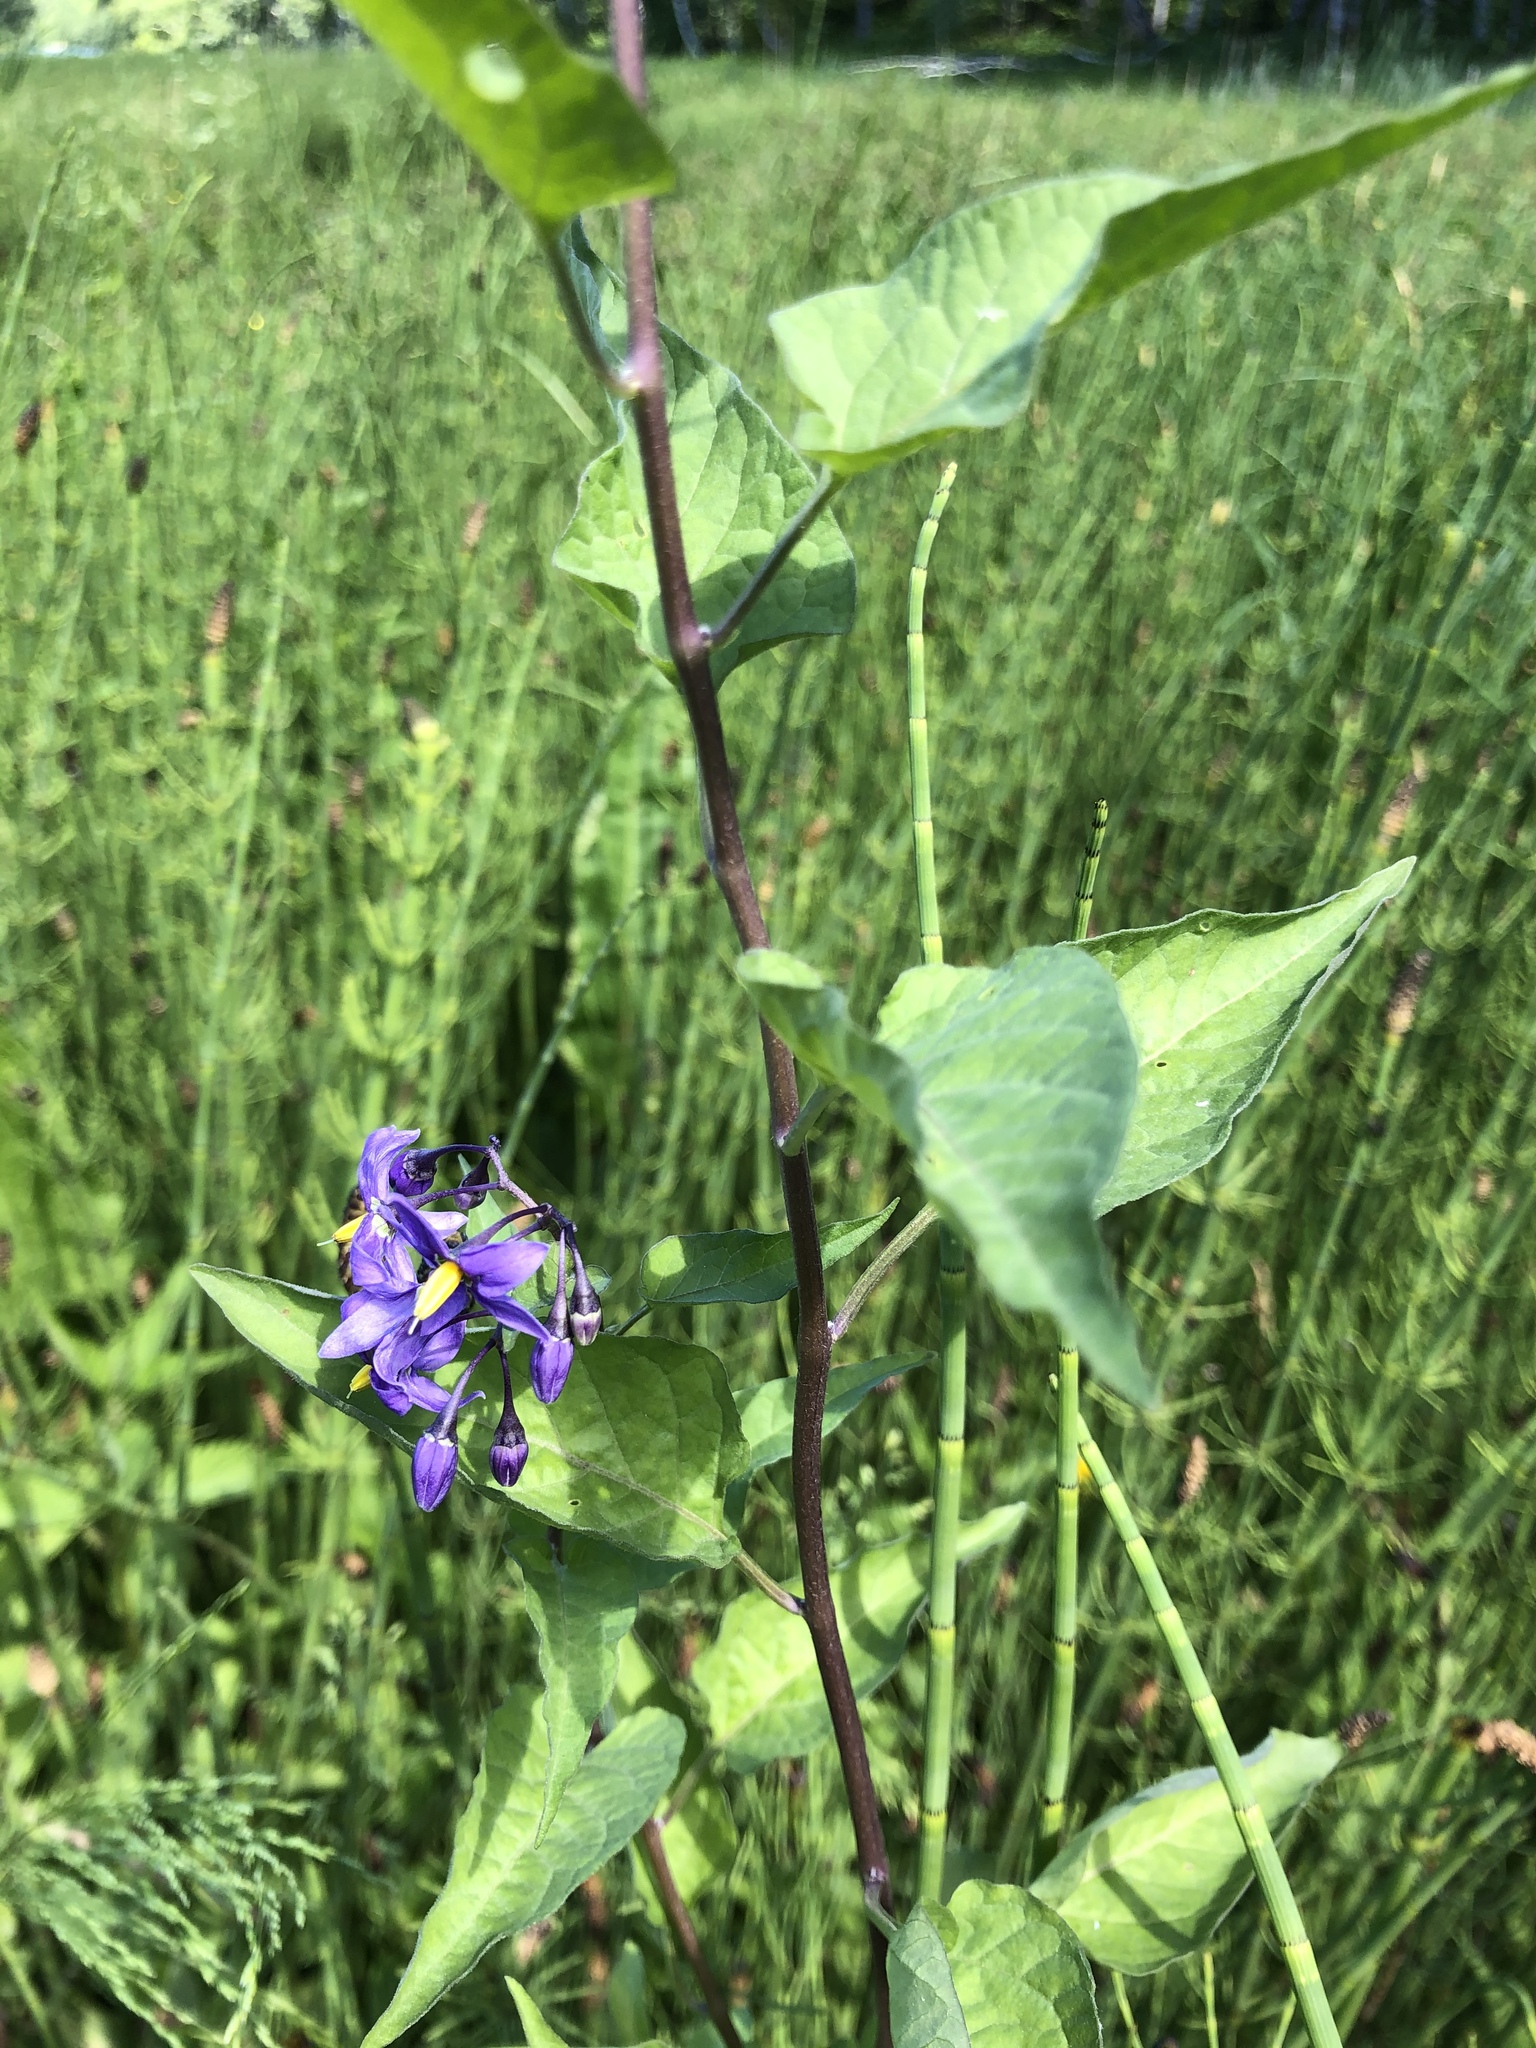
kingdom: Plantae
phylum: Tracheophyta
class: Magnoliopsida
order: Solanales
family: Solanaceae
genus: Solanum
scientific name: Solanum dulcamara
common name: Climbing nightshade
